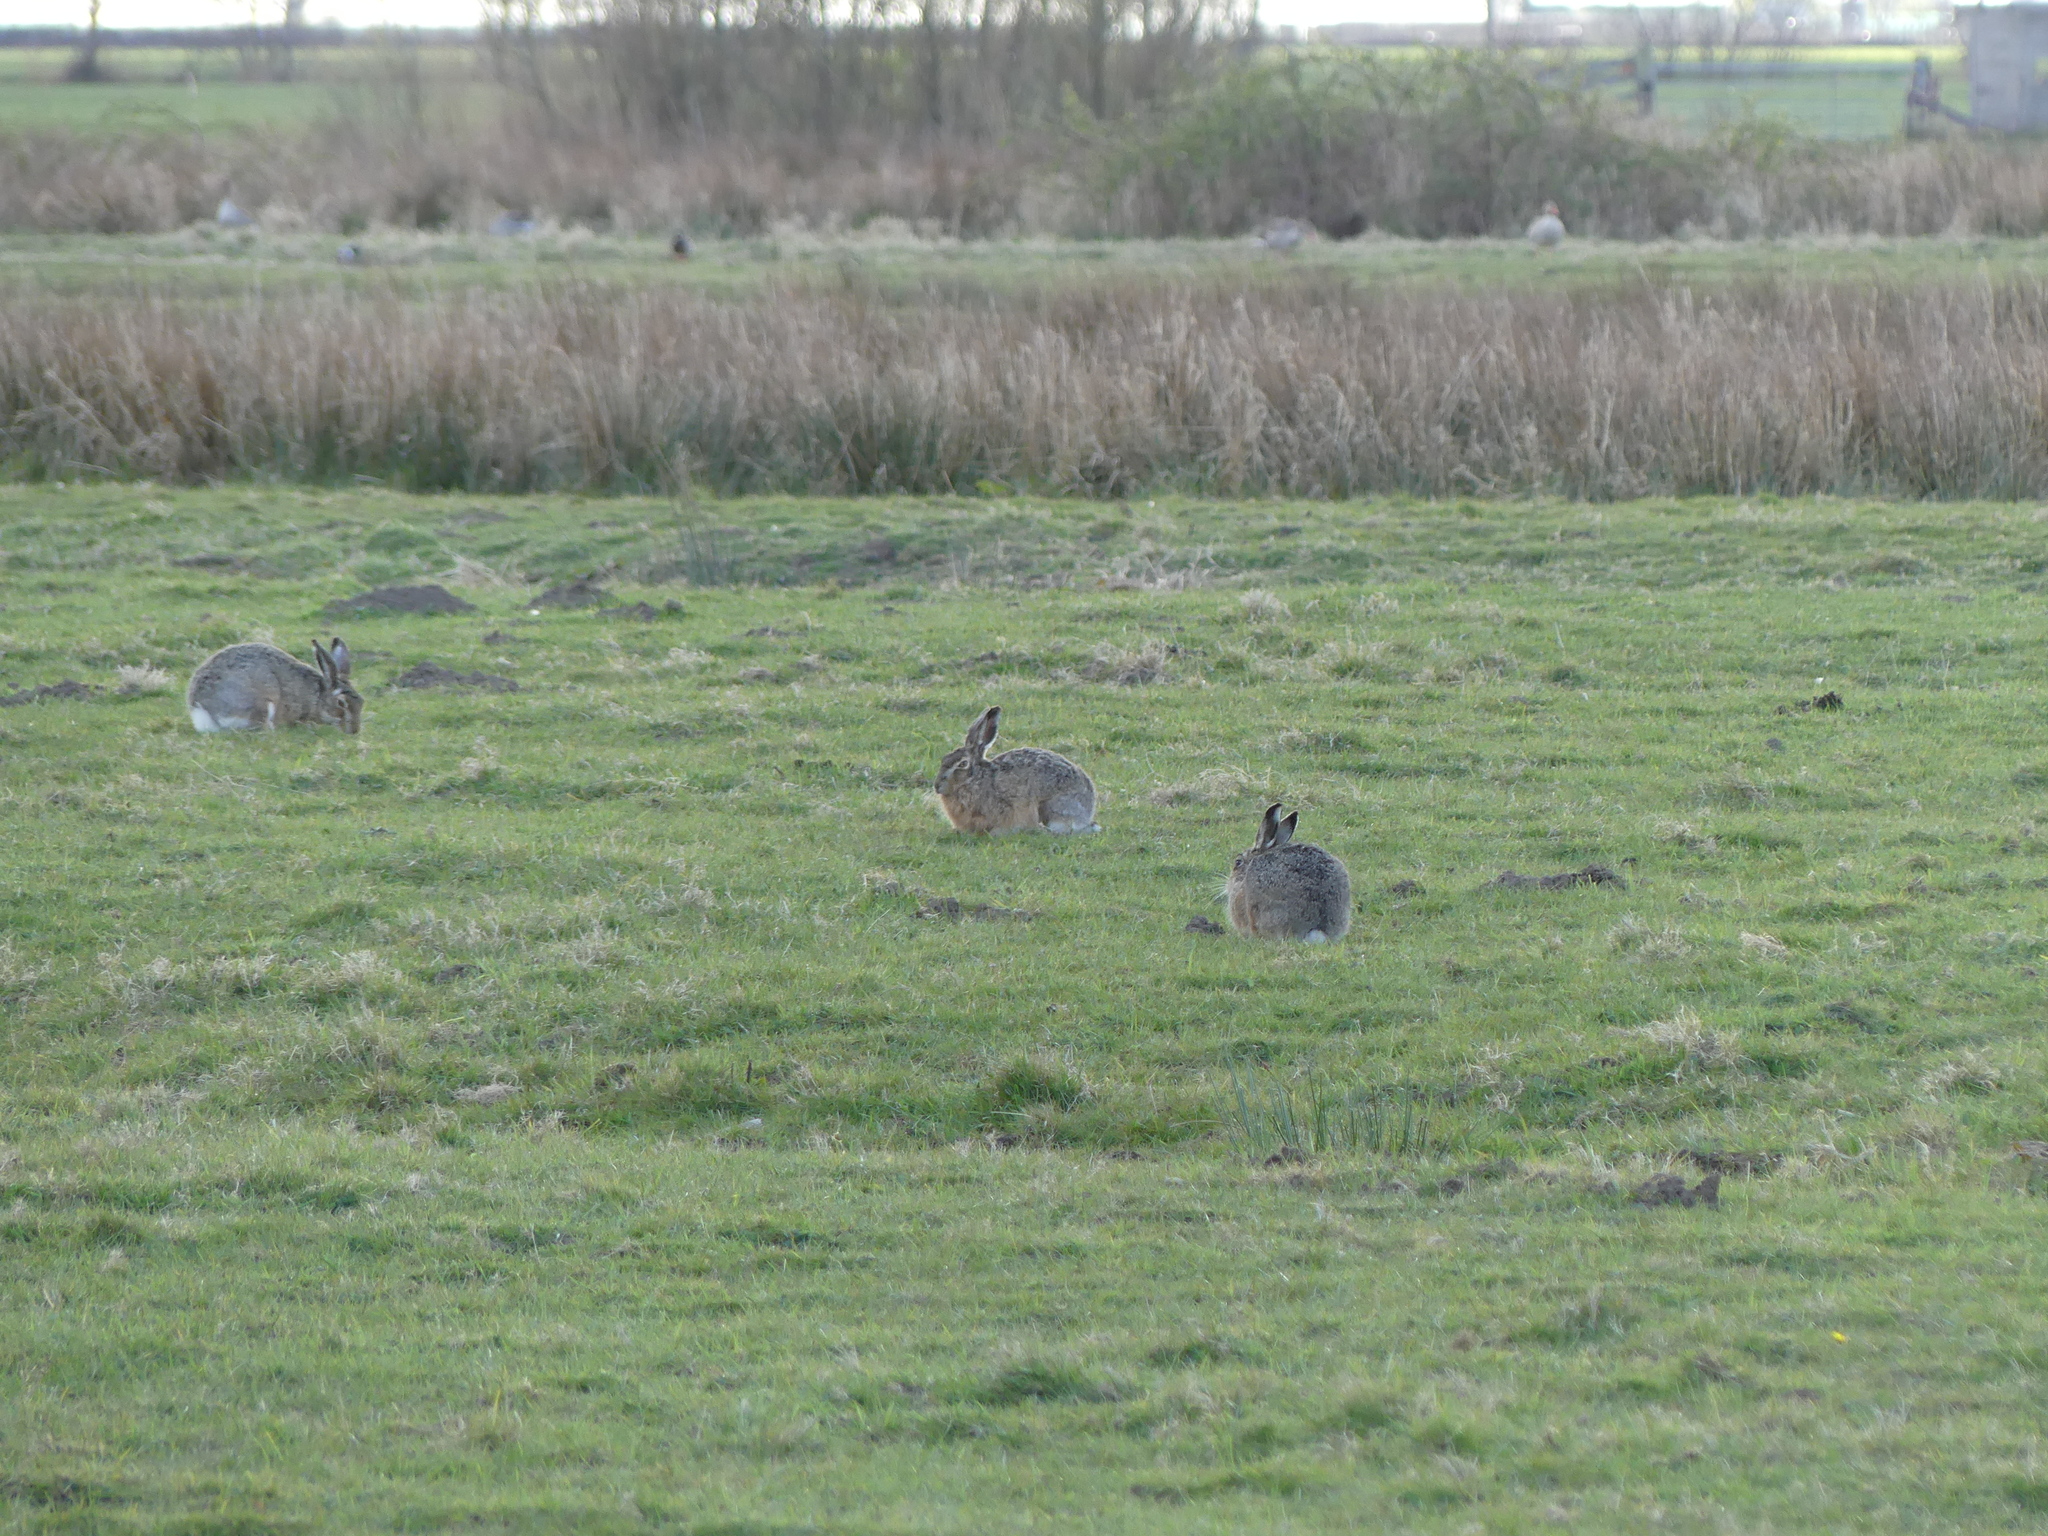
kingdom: Animalia
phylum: Chordata
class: Mammalia
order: Lagomorpha
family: Leporidae
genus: Lepus
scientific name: Lepus europaeus
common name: European hare
